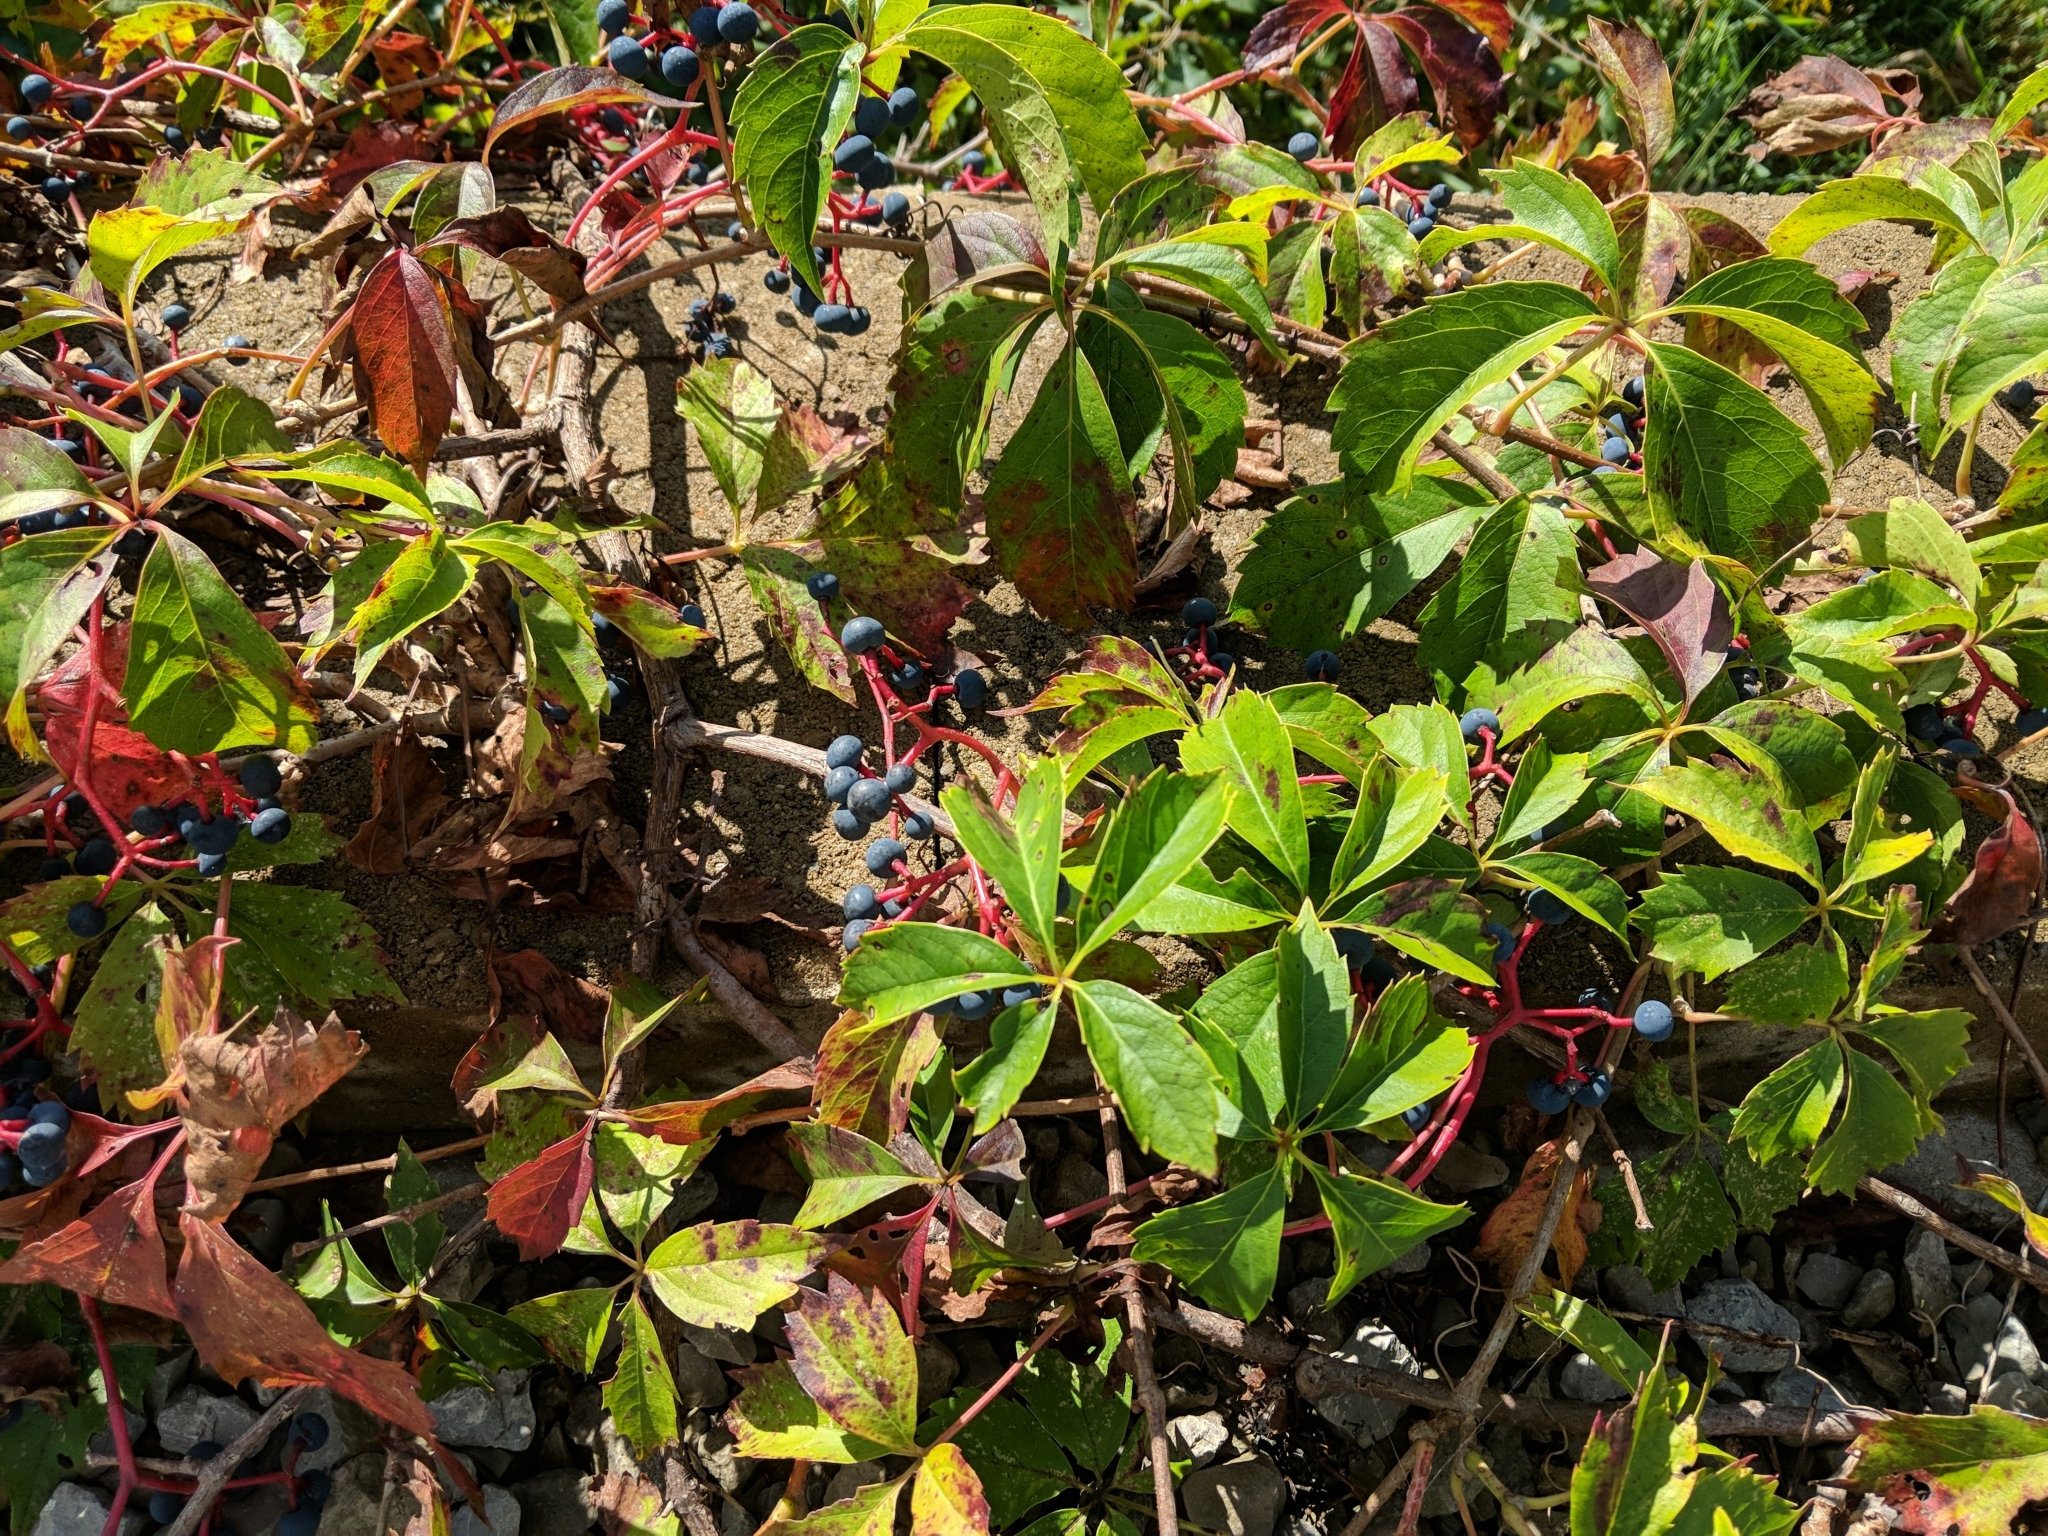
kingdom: Plantae
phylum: Tracheophyta
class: Magnoliopsida
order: Vitales
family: Vitaceae
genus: Parthenocissus
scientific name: Parthenocissus quinquefolia
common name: Virginia-creeper
